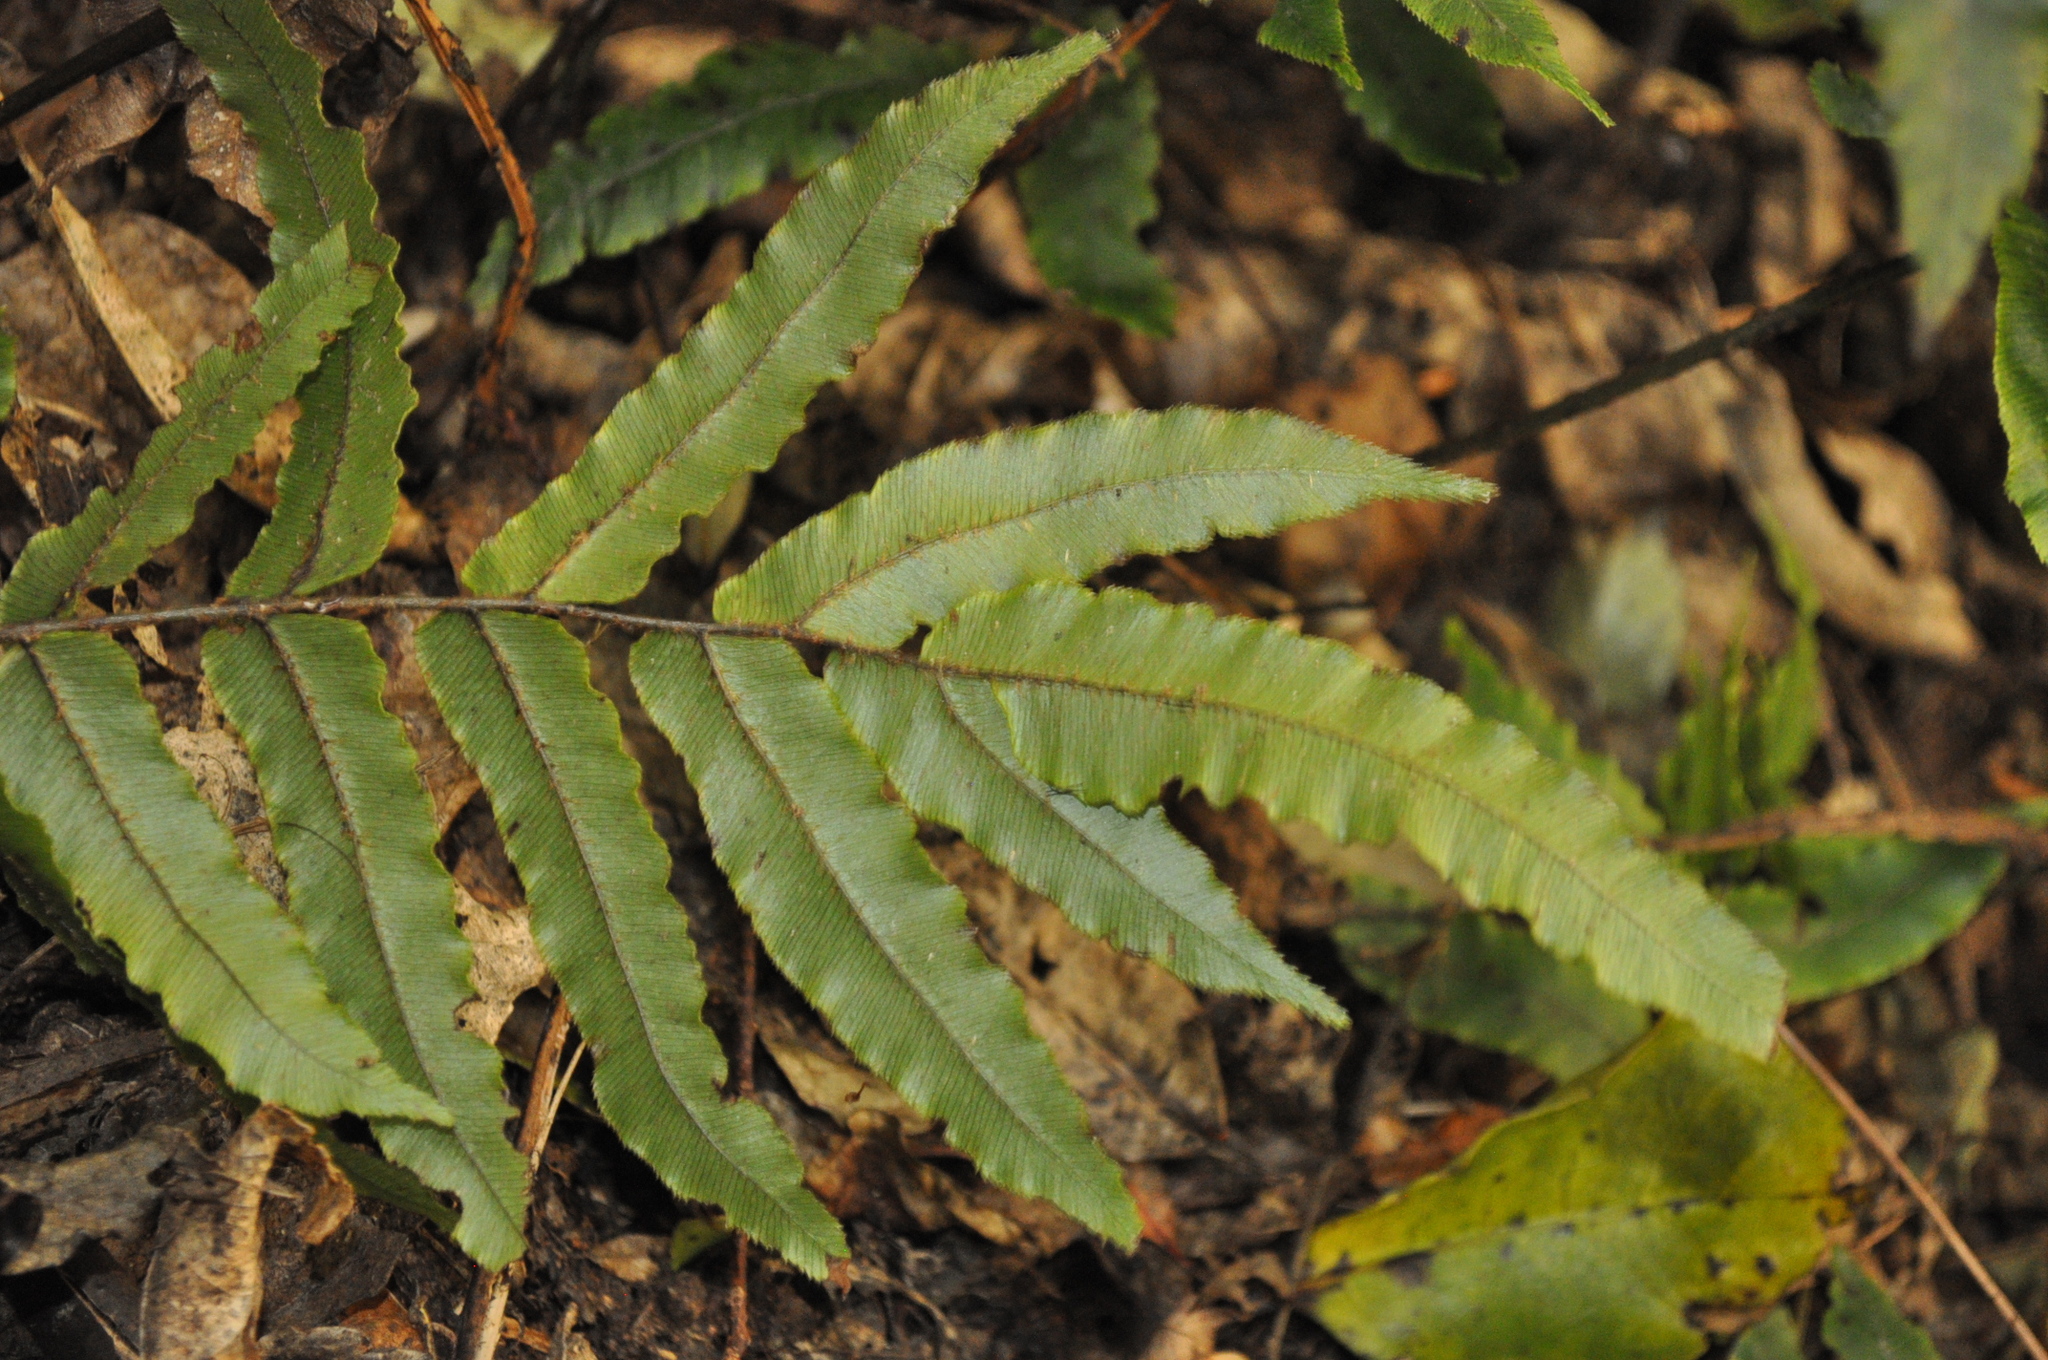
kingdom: Plantae
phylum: Tracheophyta
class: Polypodiopsida
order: Polypodiales
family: Blechnaceae
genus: Parablechnum
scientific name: Parablechnum procerum
